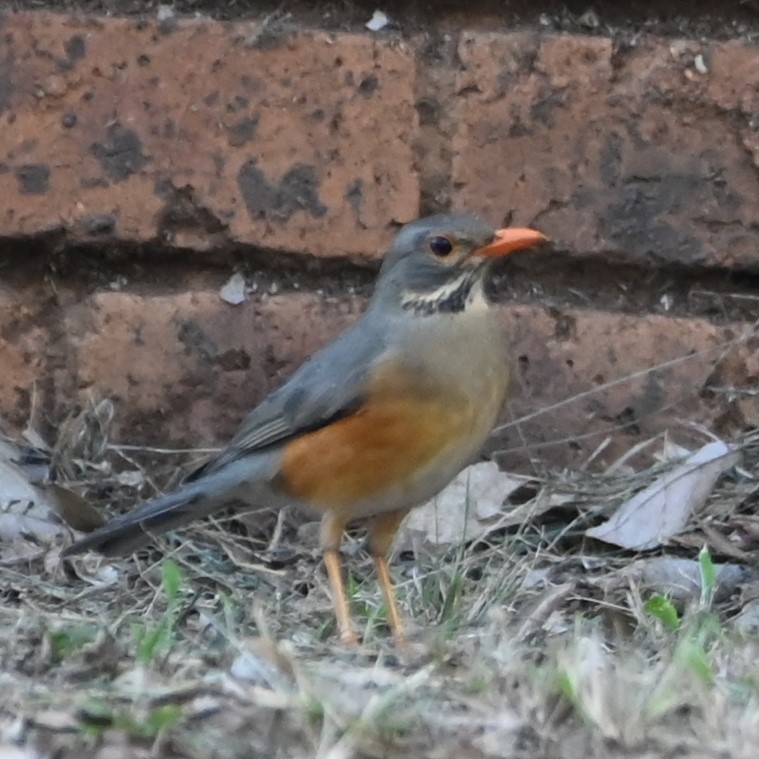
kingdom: Animalia
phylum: Chordata
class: Aves
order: Passeriformes
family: Turdidae
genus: Turdus
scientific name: Turdus libonyana
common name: Kurrichane thrush
